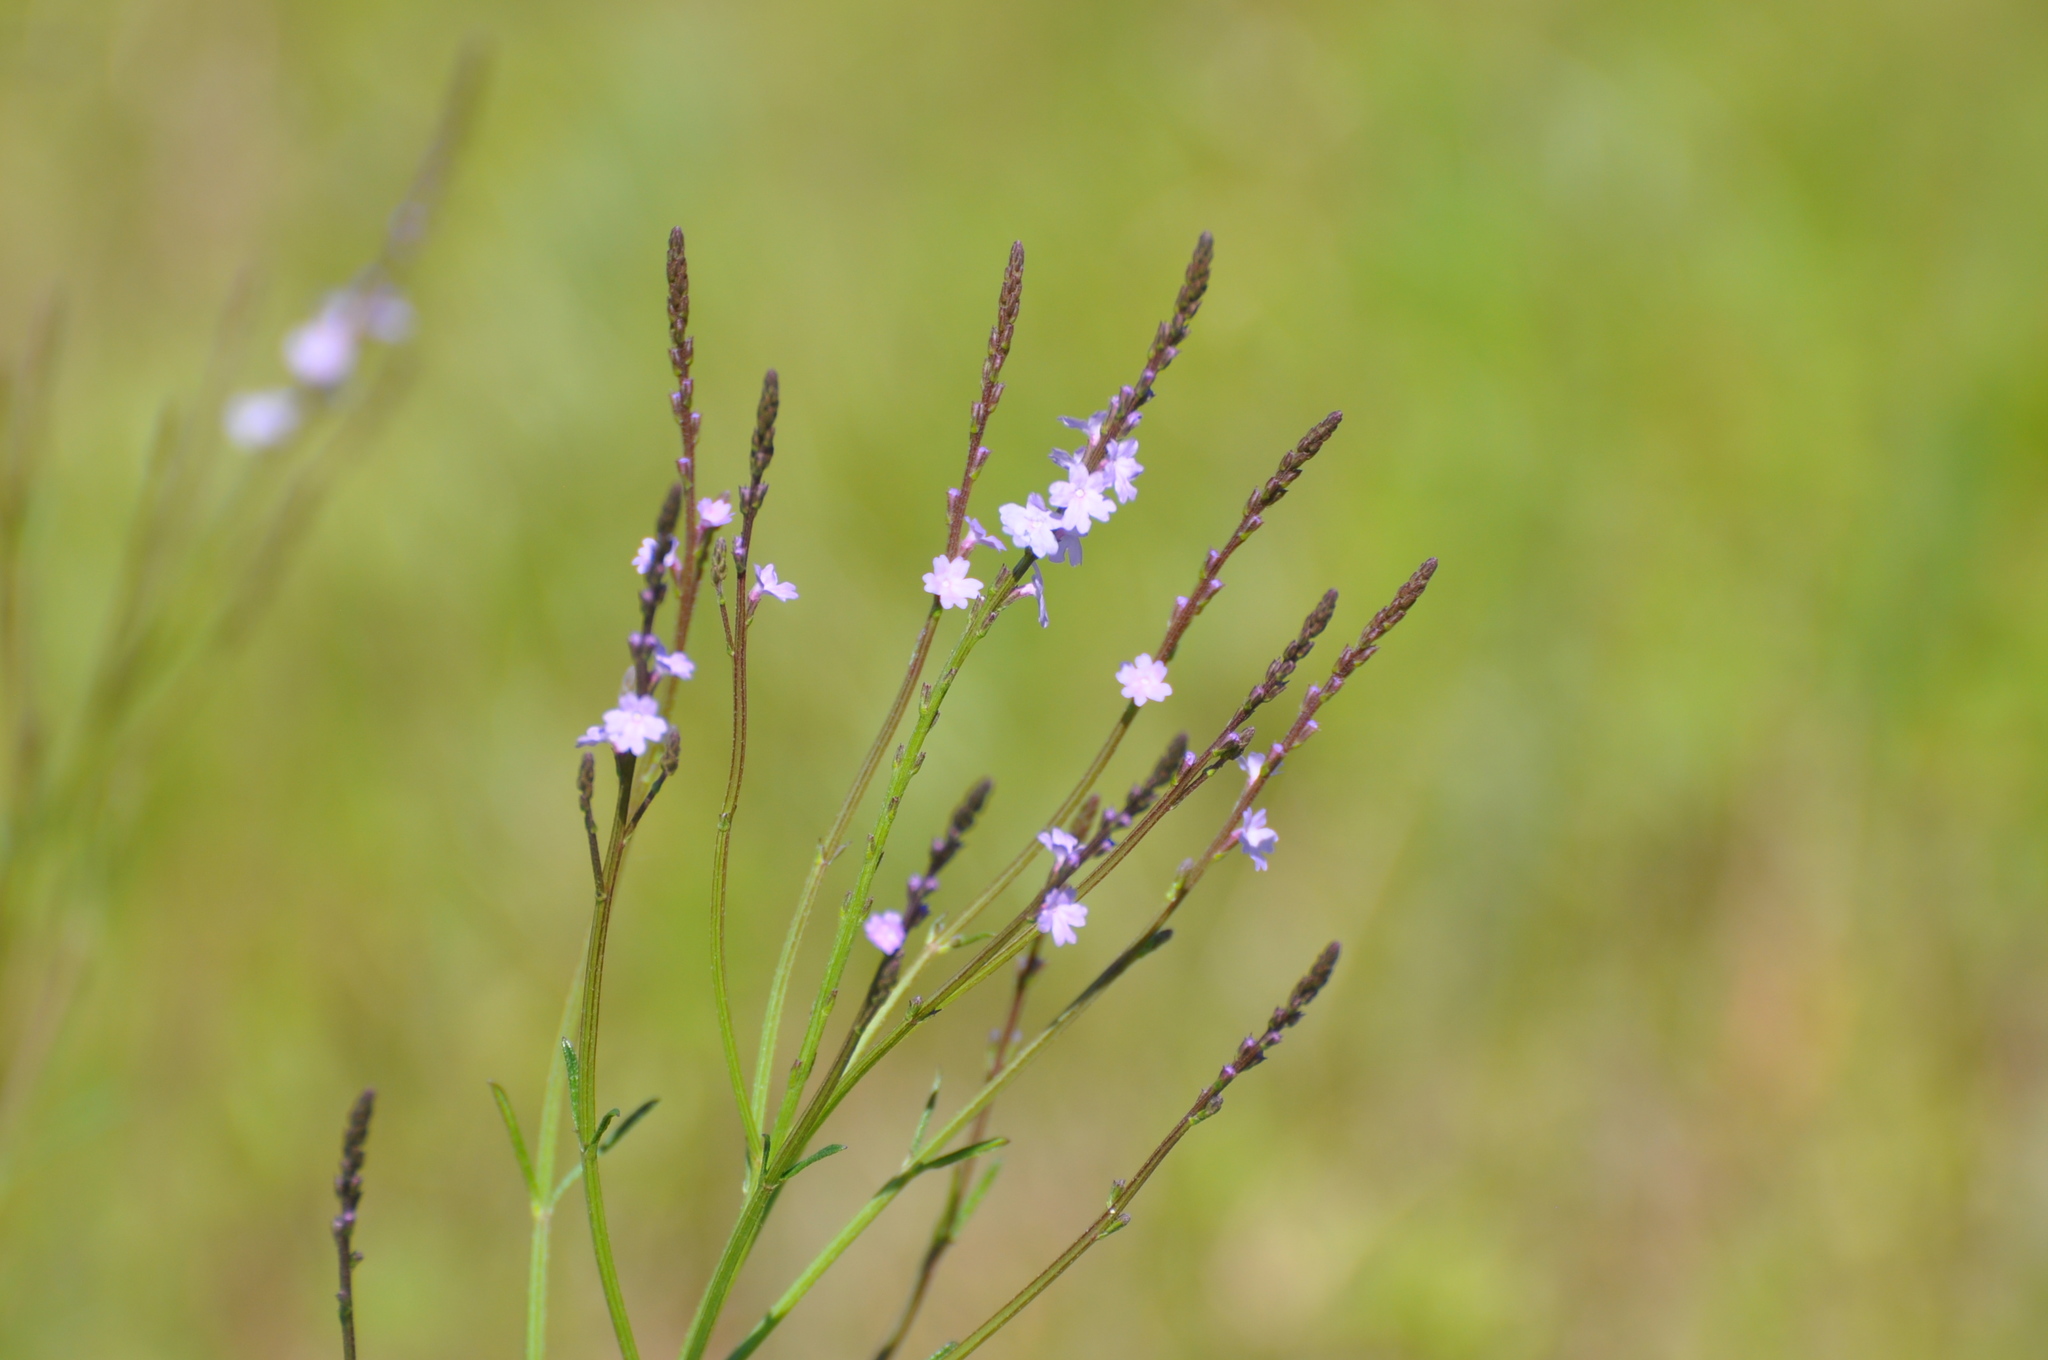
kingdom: Plantae
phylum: Tracheophyta
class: Magnoliopsida
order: Lamiales
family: Verbenaceae
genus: Verbena
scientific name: Verbena halei
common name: Texas vervain
